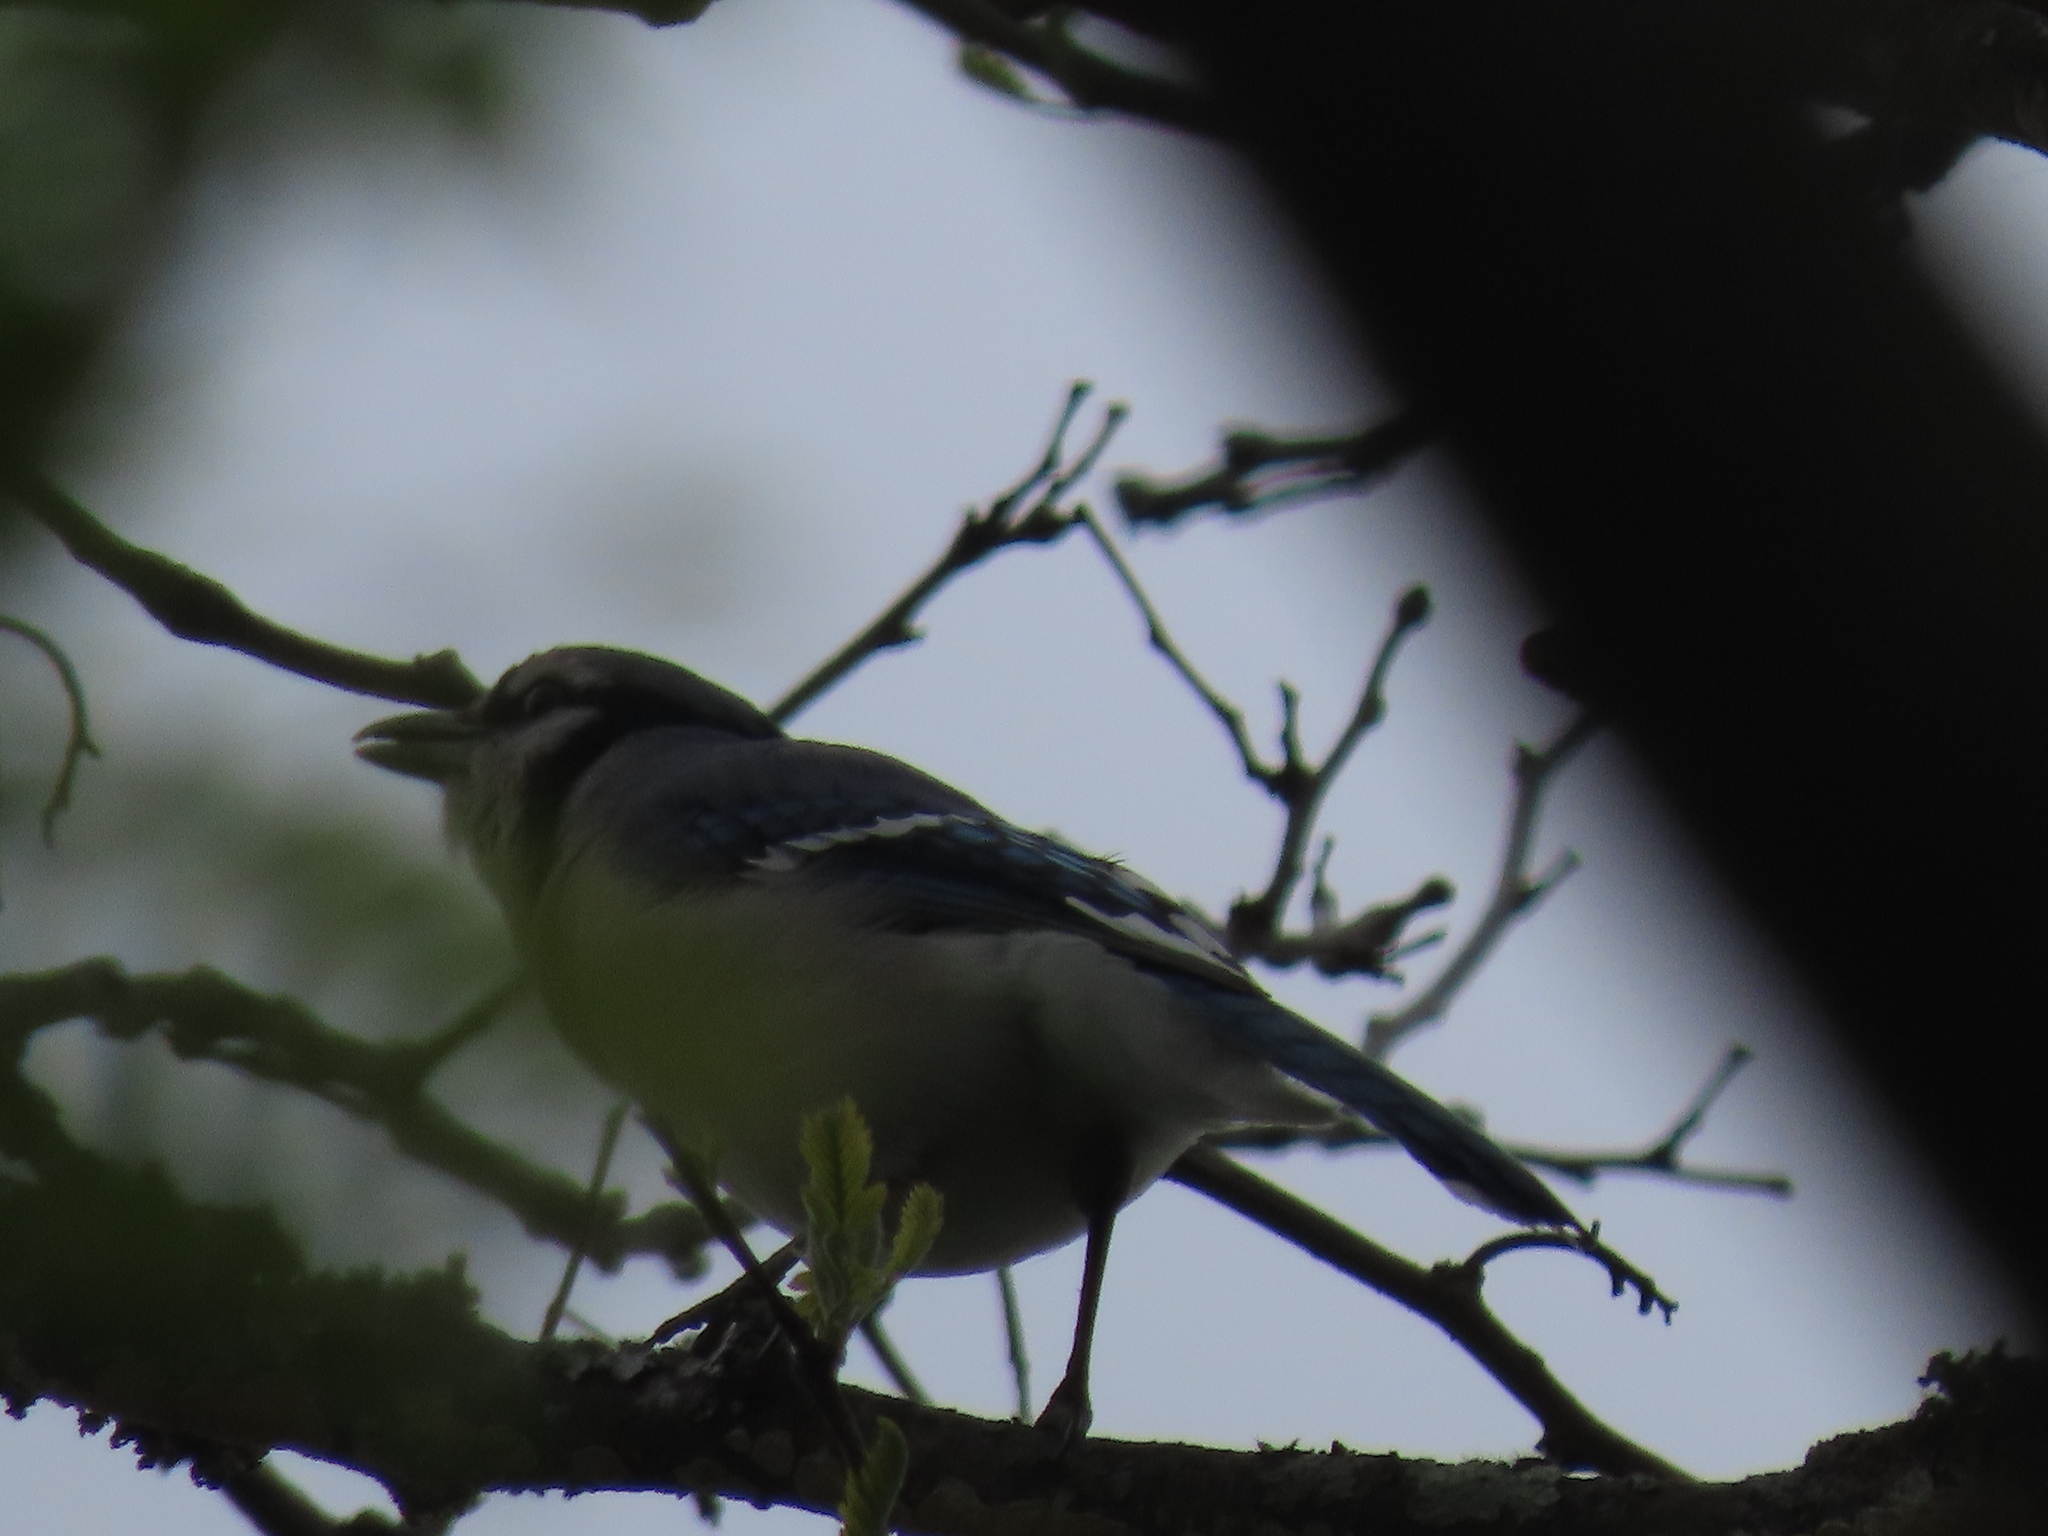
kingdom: Animalia
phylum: Chordata
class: Aves
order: Passeriformes
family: Corvidae
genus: Cyanocitta
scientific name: Cyanocitta cristata
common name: Blue jay
